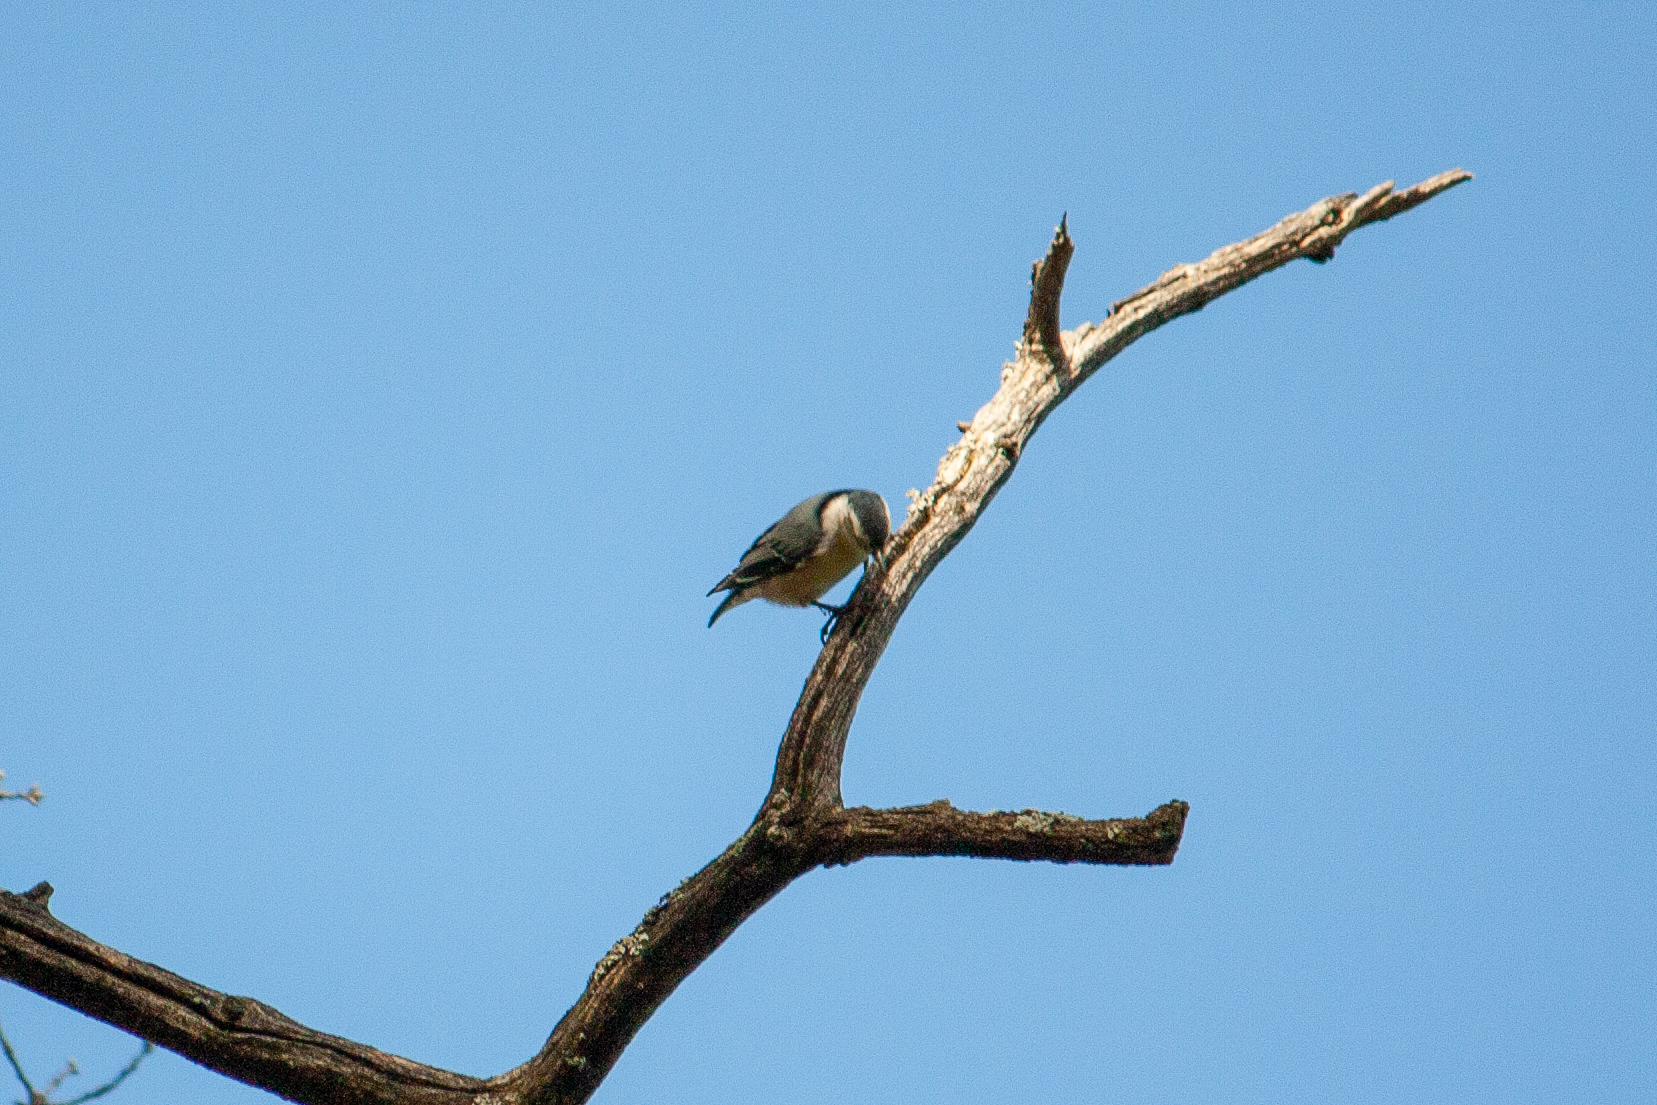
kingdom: Animalia
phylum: Chordata
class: Aves
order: Passeriformes
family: Sittidae
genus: Sitta
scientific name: Sitta carolinensis
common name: White-breasted nuthatch
